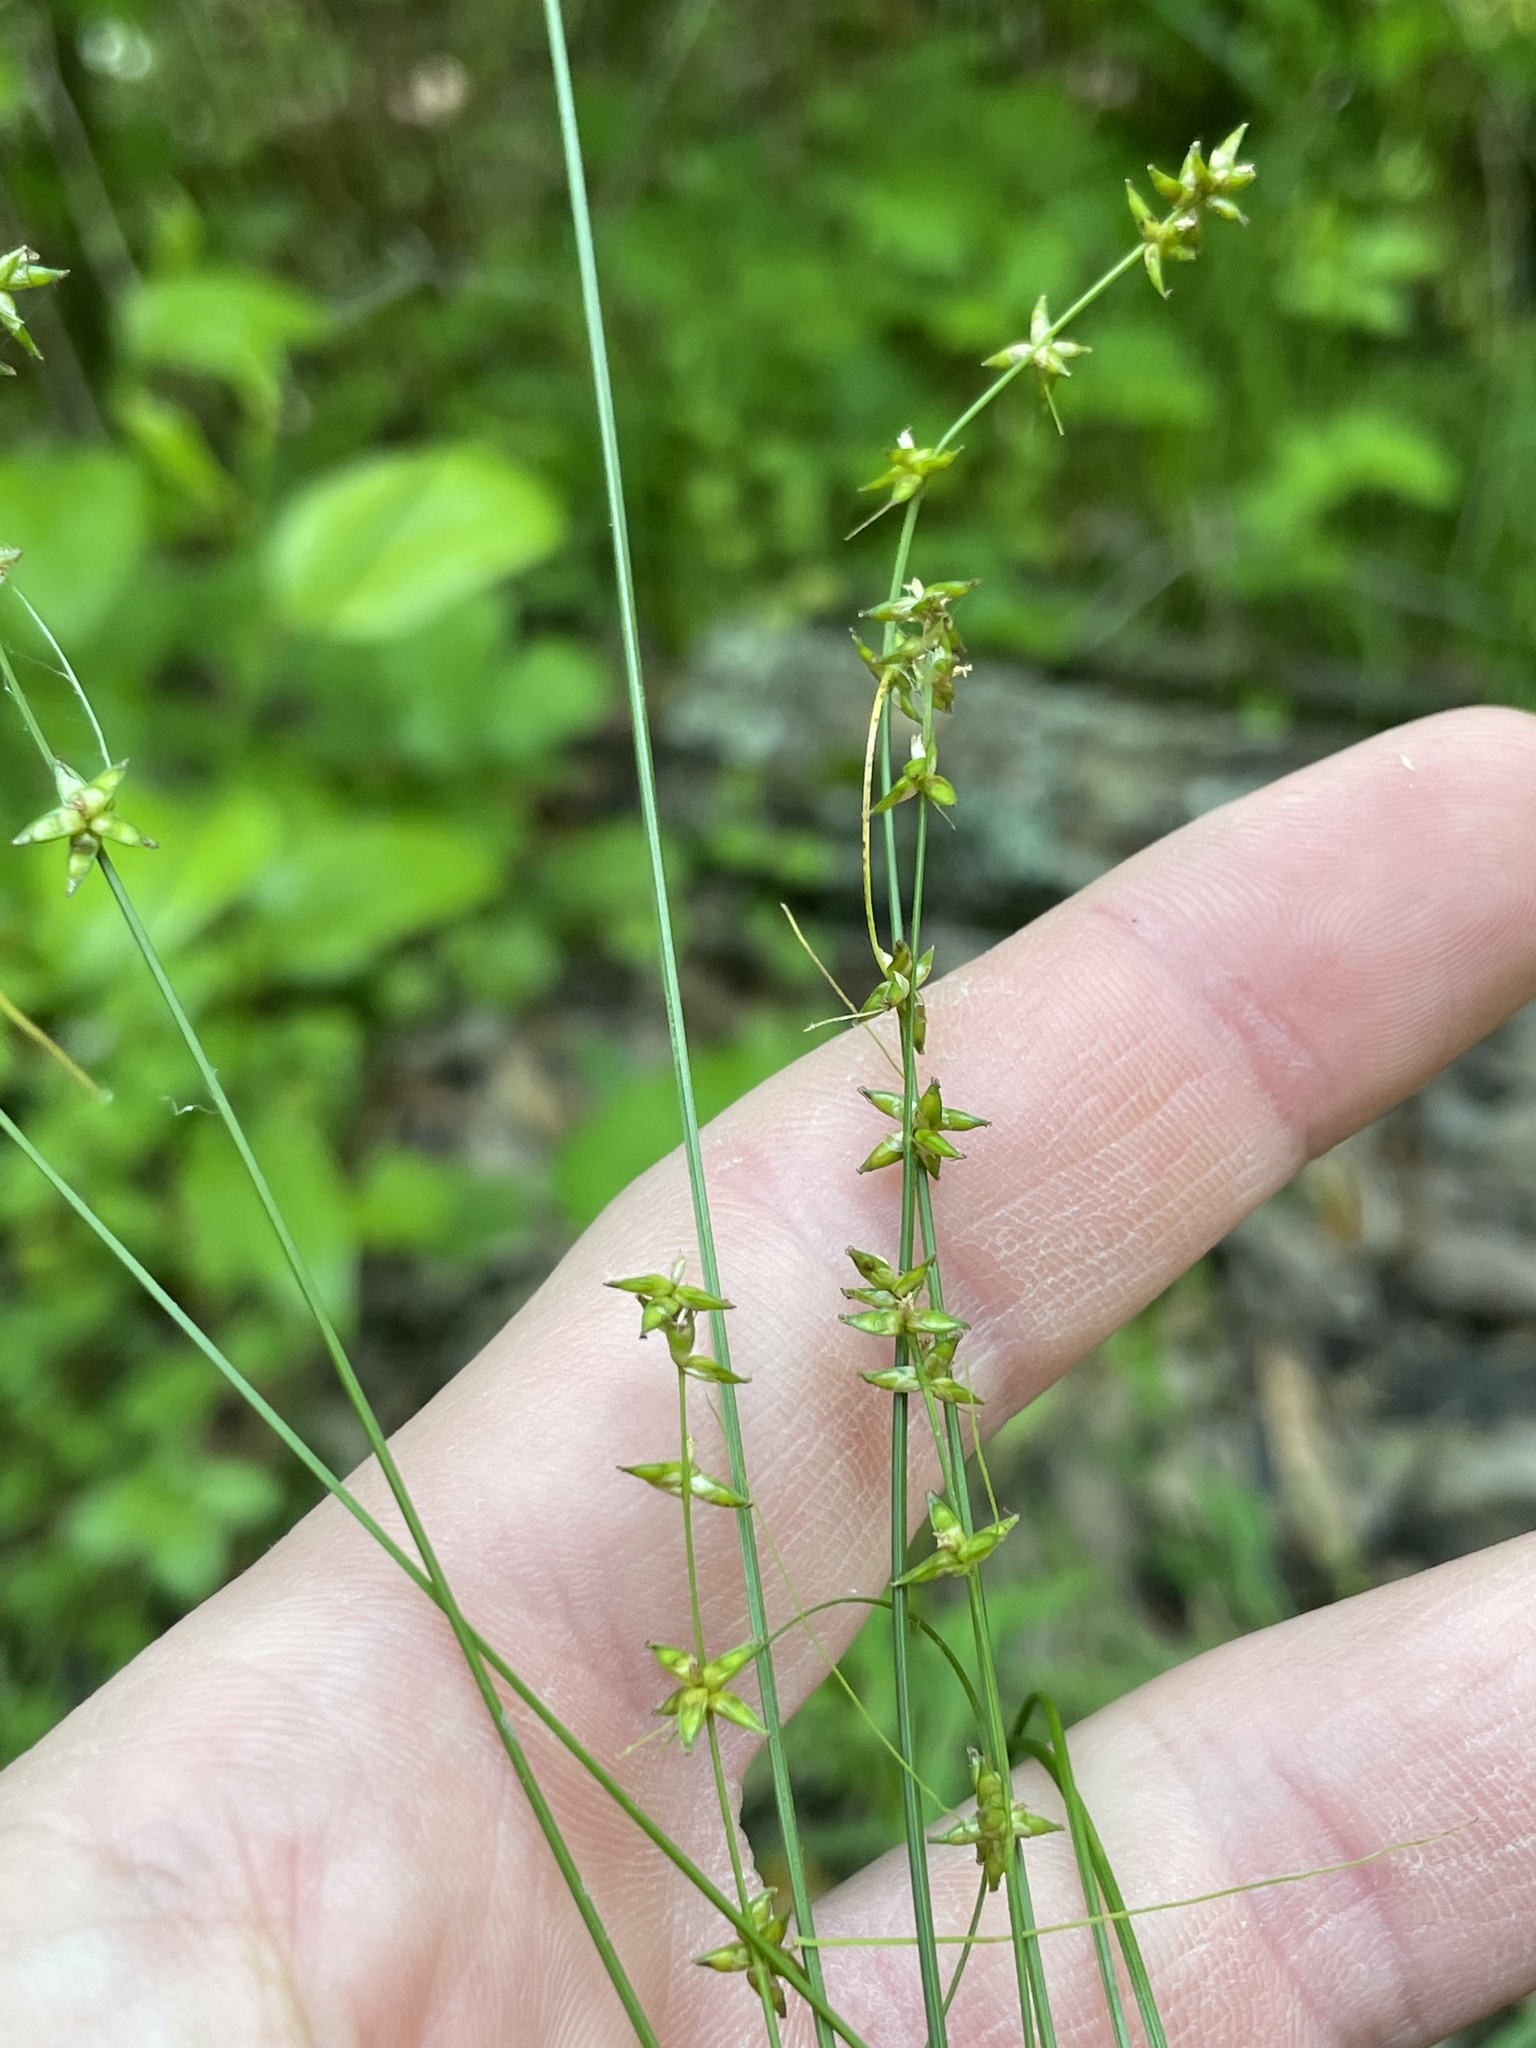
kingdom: Plantae
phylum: Tracheophyta
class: Liliopsida
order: Poales
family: Cyperaceae
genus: Carex
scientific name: Carex radiata
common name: Eastern star sedge
